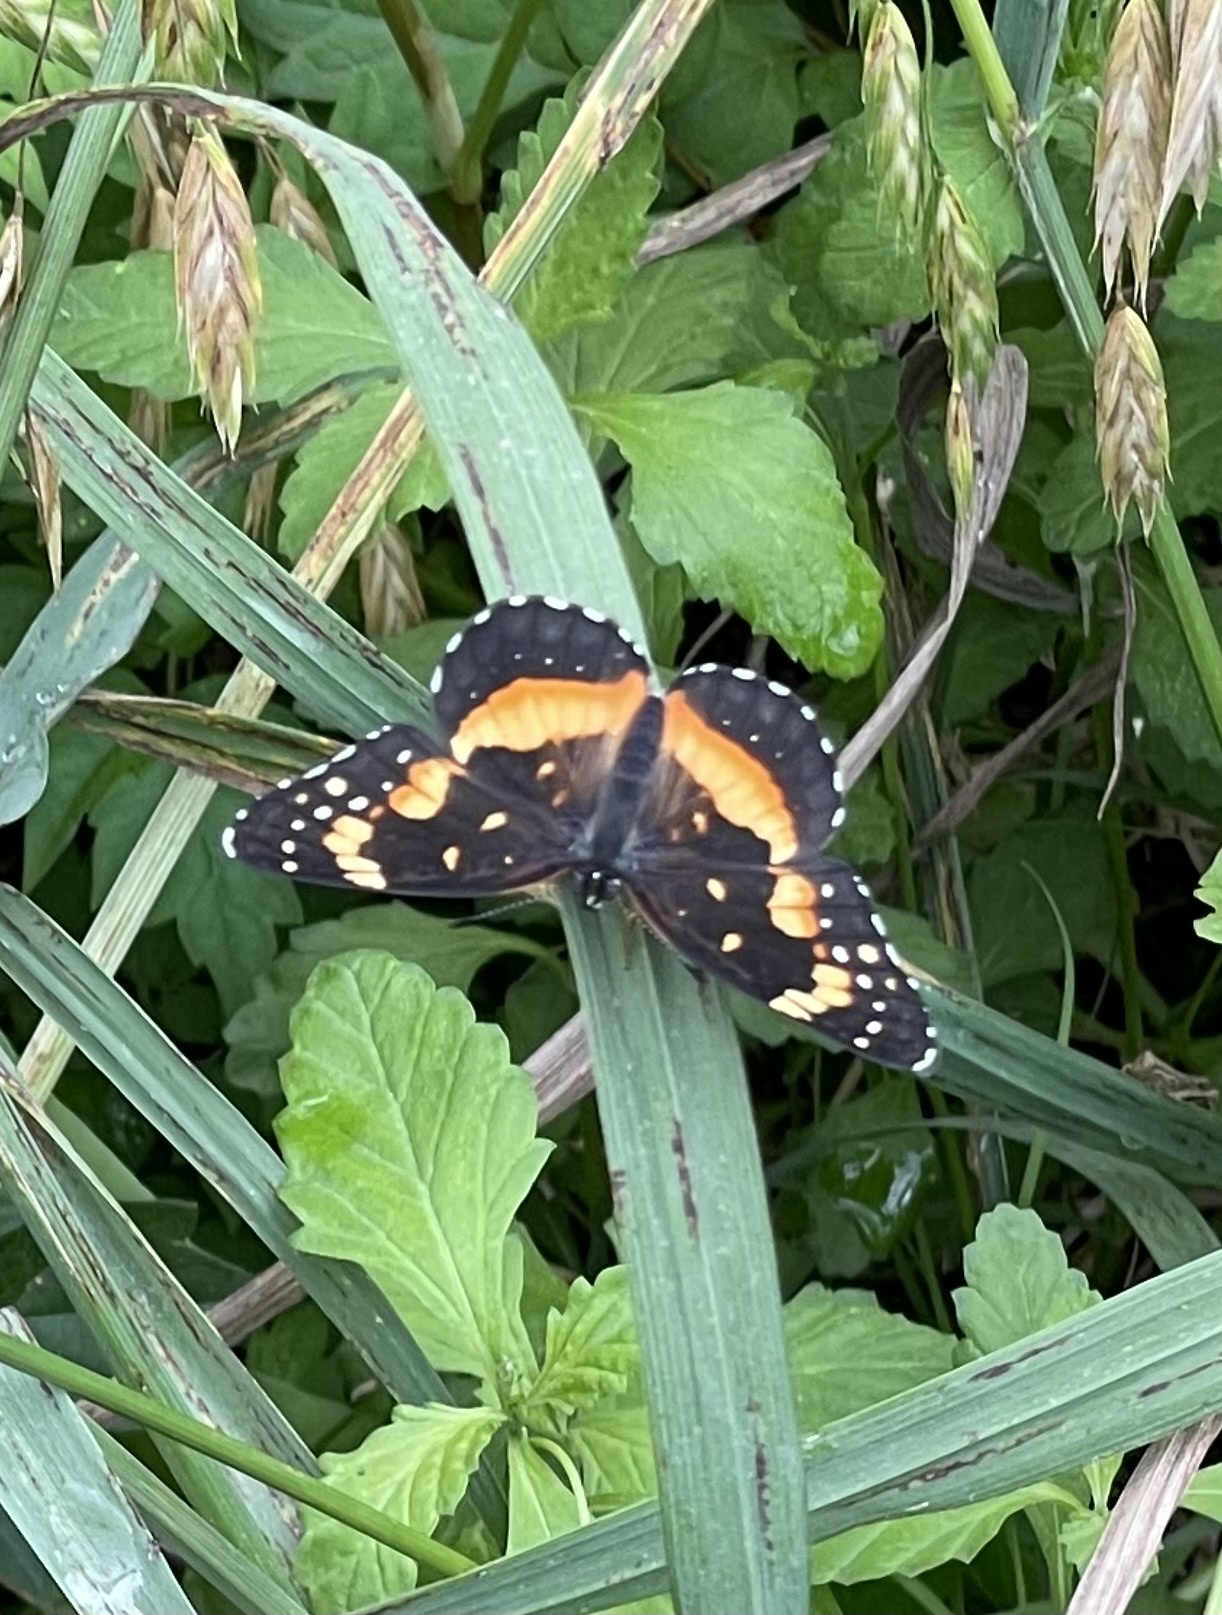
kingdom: Animalia
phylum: Arthropoda
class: Insecta
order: Lepidoptera
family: Nymphalidae
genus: Chlosyne
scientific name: Chlosyne lacinia
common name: Bordered patch
